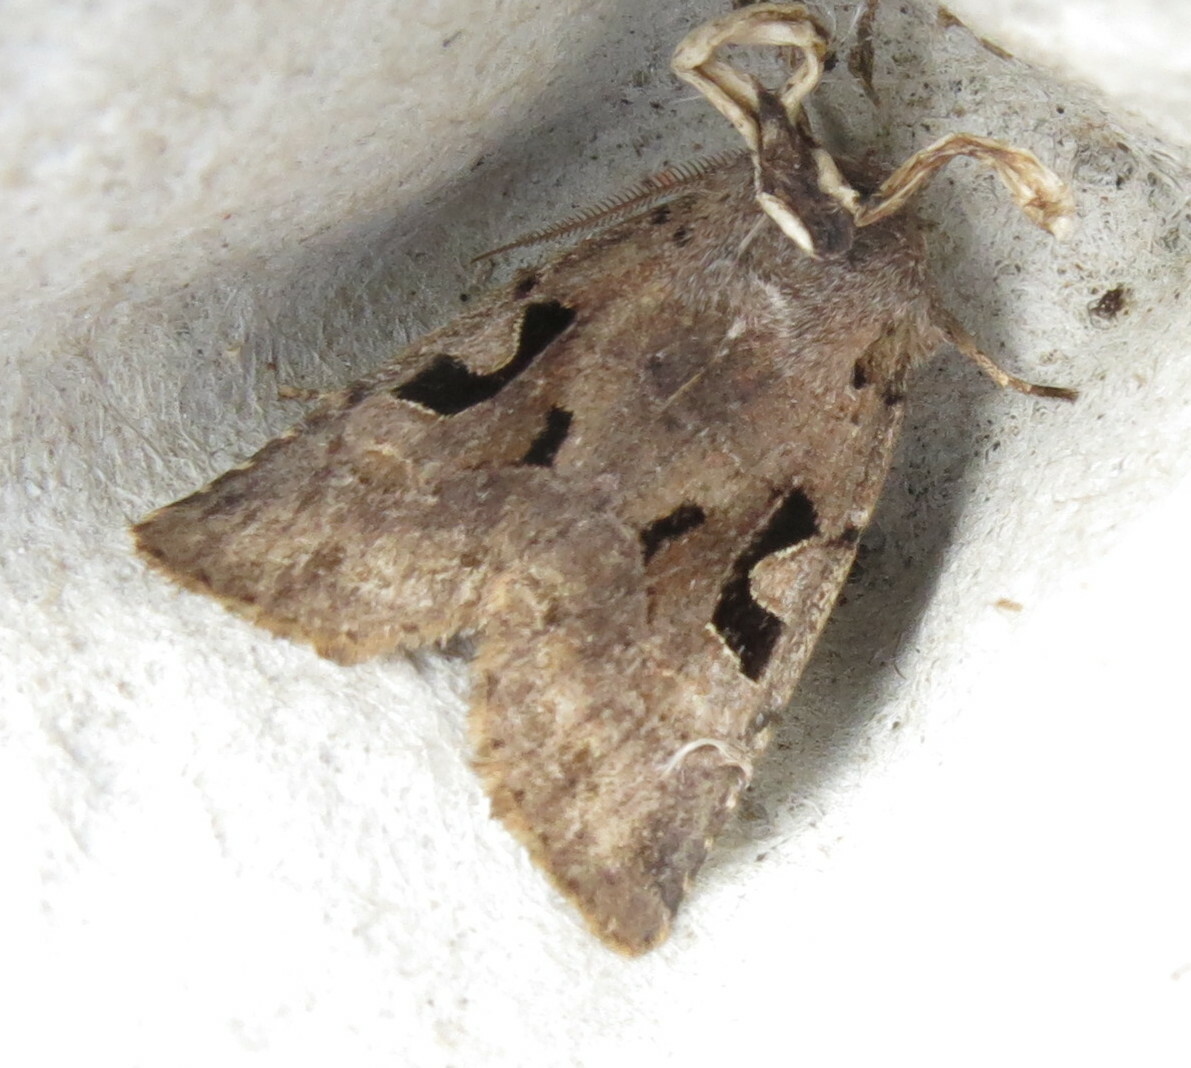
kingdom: Animalia
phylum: Arthropoda
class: Insecta
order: Lepidoptera
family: Noctuidae
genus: Orthosia
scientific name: Orthosia gothica
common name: Hebrew character
